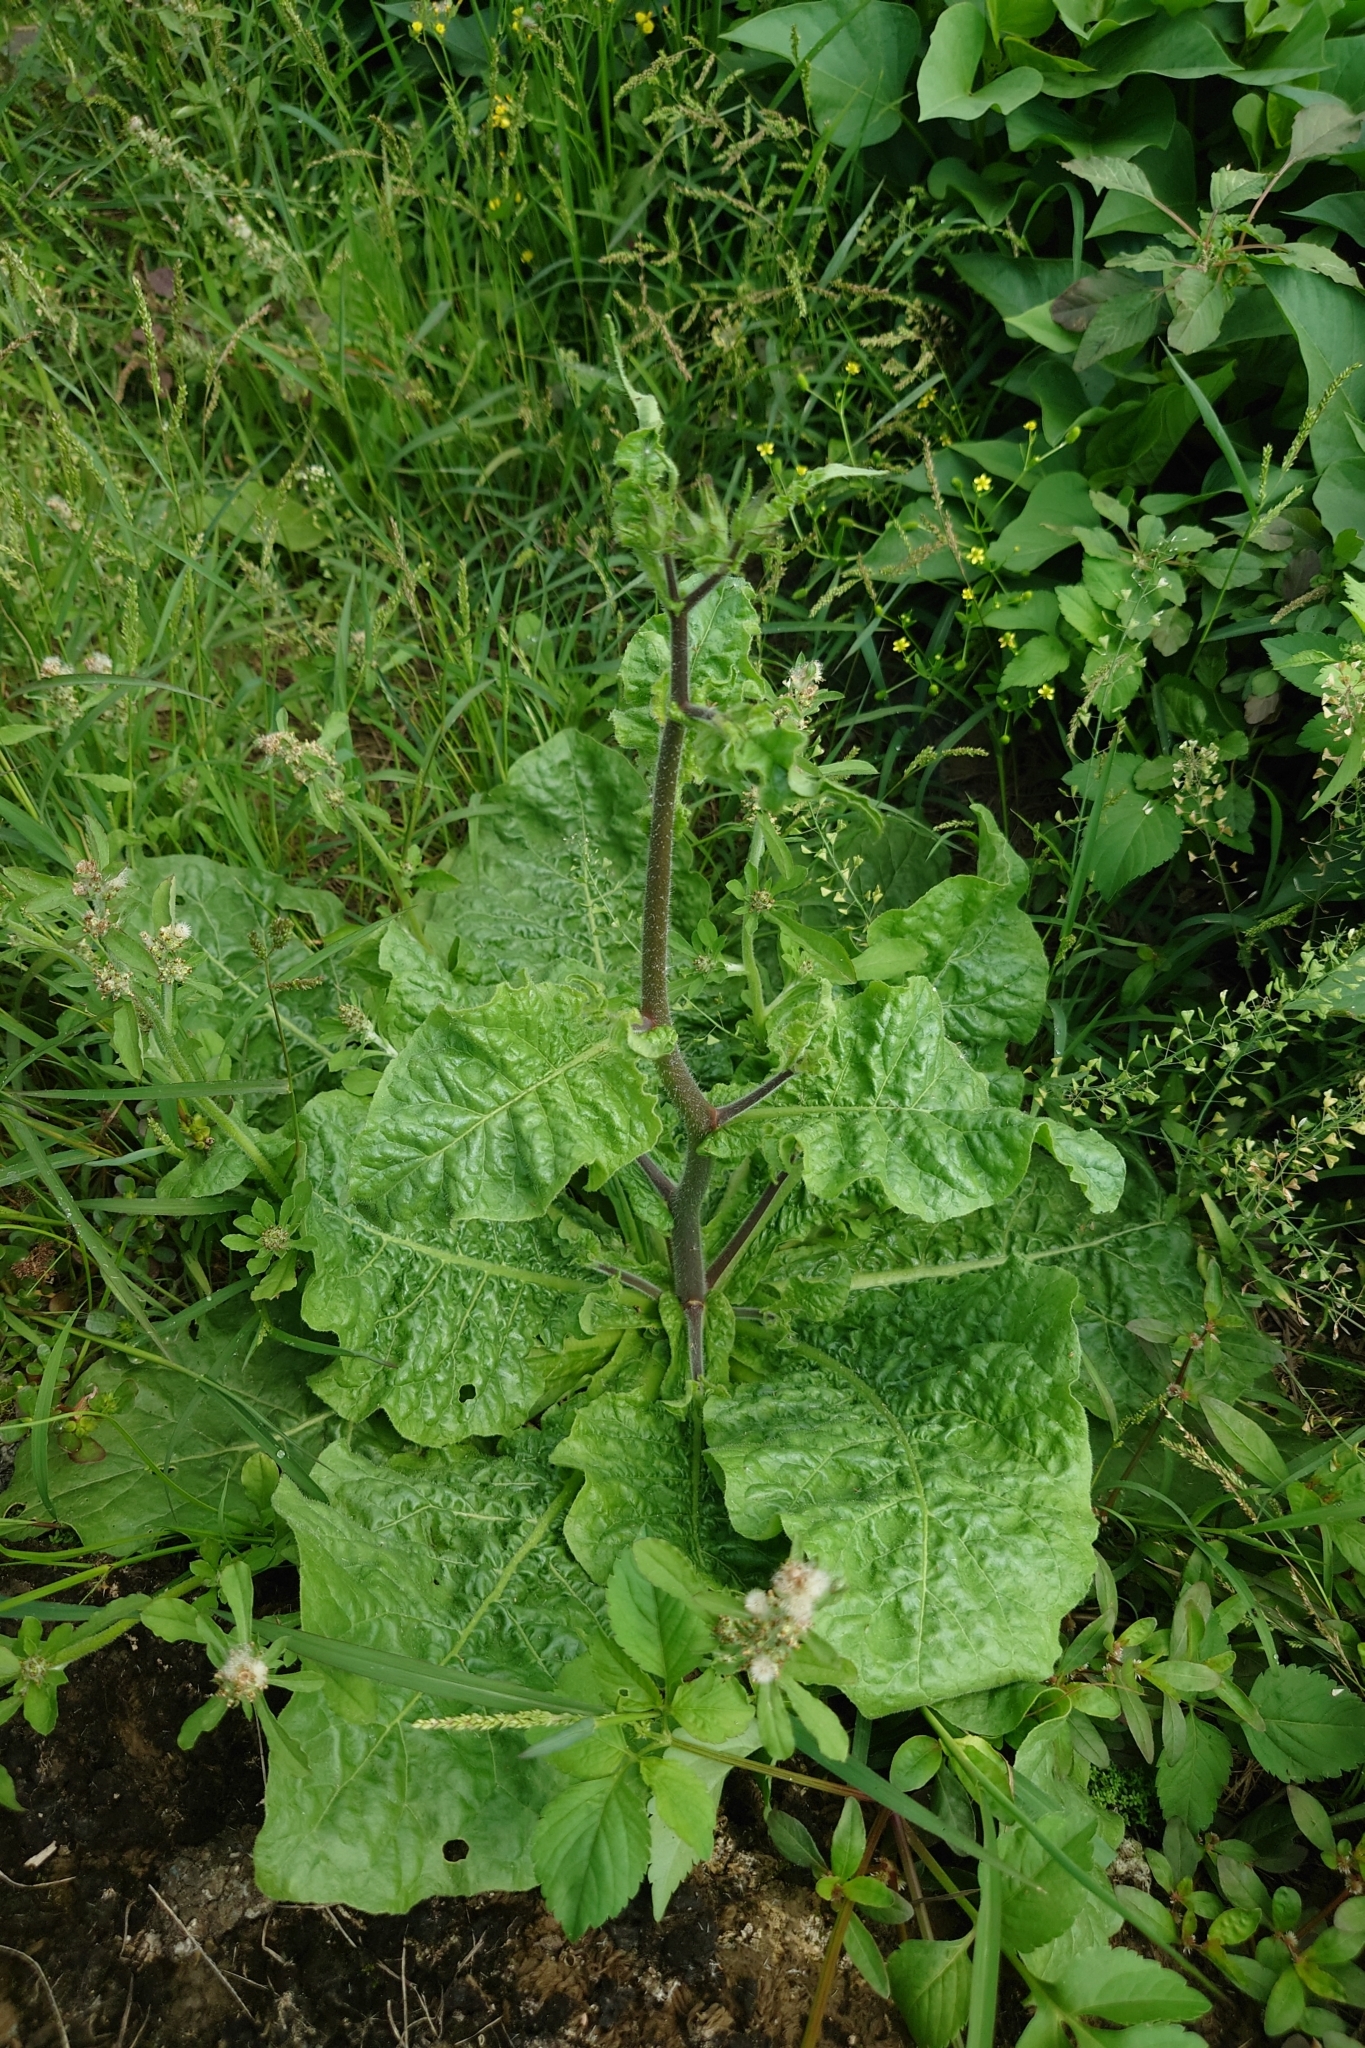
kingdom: Plantae
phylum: Tracheophyta
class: Magnoliopsida
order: Solanales
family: Solanaceae
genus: Nicotiana
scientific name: Nicotiana plumbaginifolia
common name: Tex-mex tobacco
